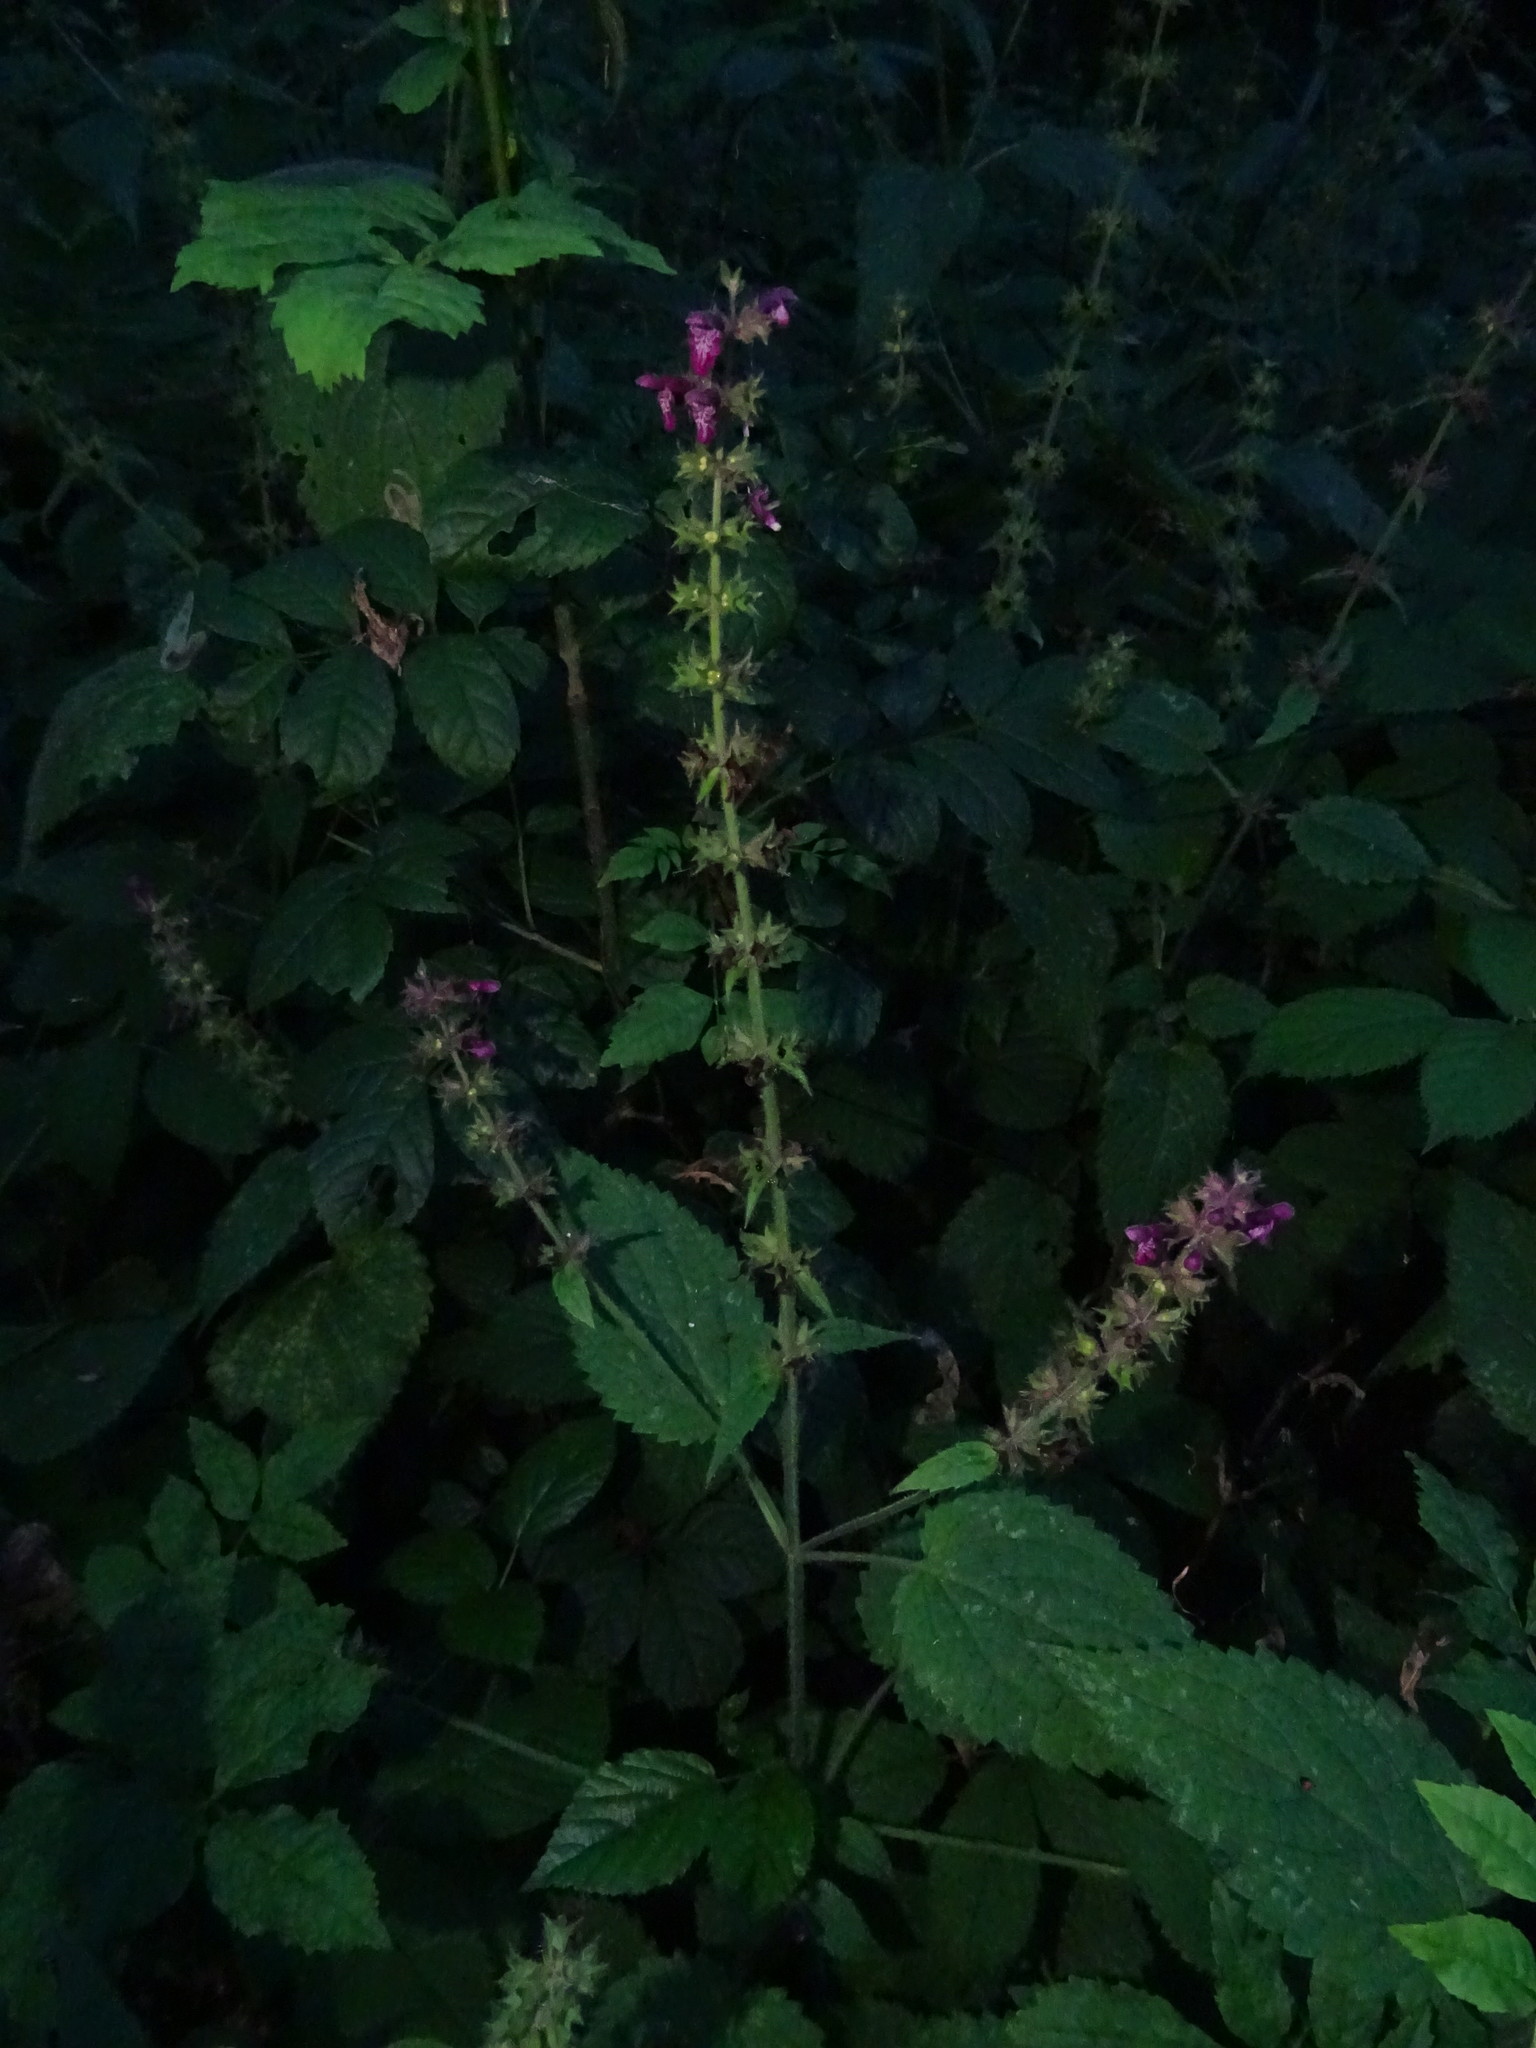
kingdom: Plantae
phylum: Tracheophyta
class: Magnoliopsida
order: Lamiales
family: Lamiaceae
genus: Stachys
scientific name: Stachys sylvatica
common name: Hedge woundwort
